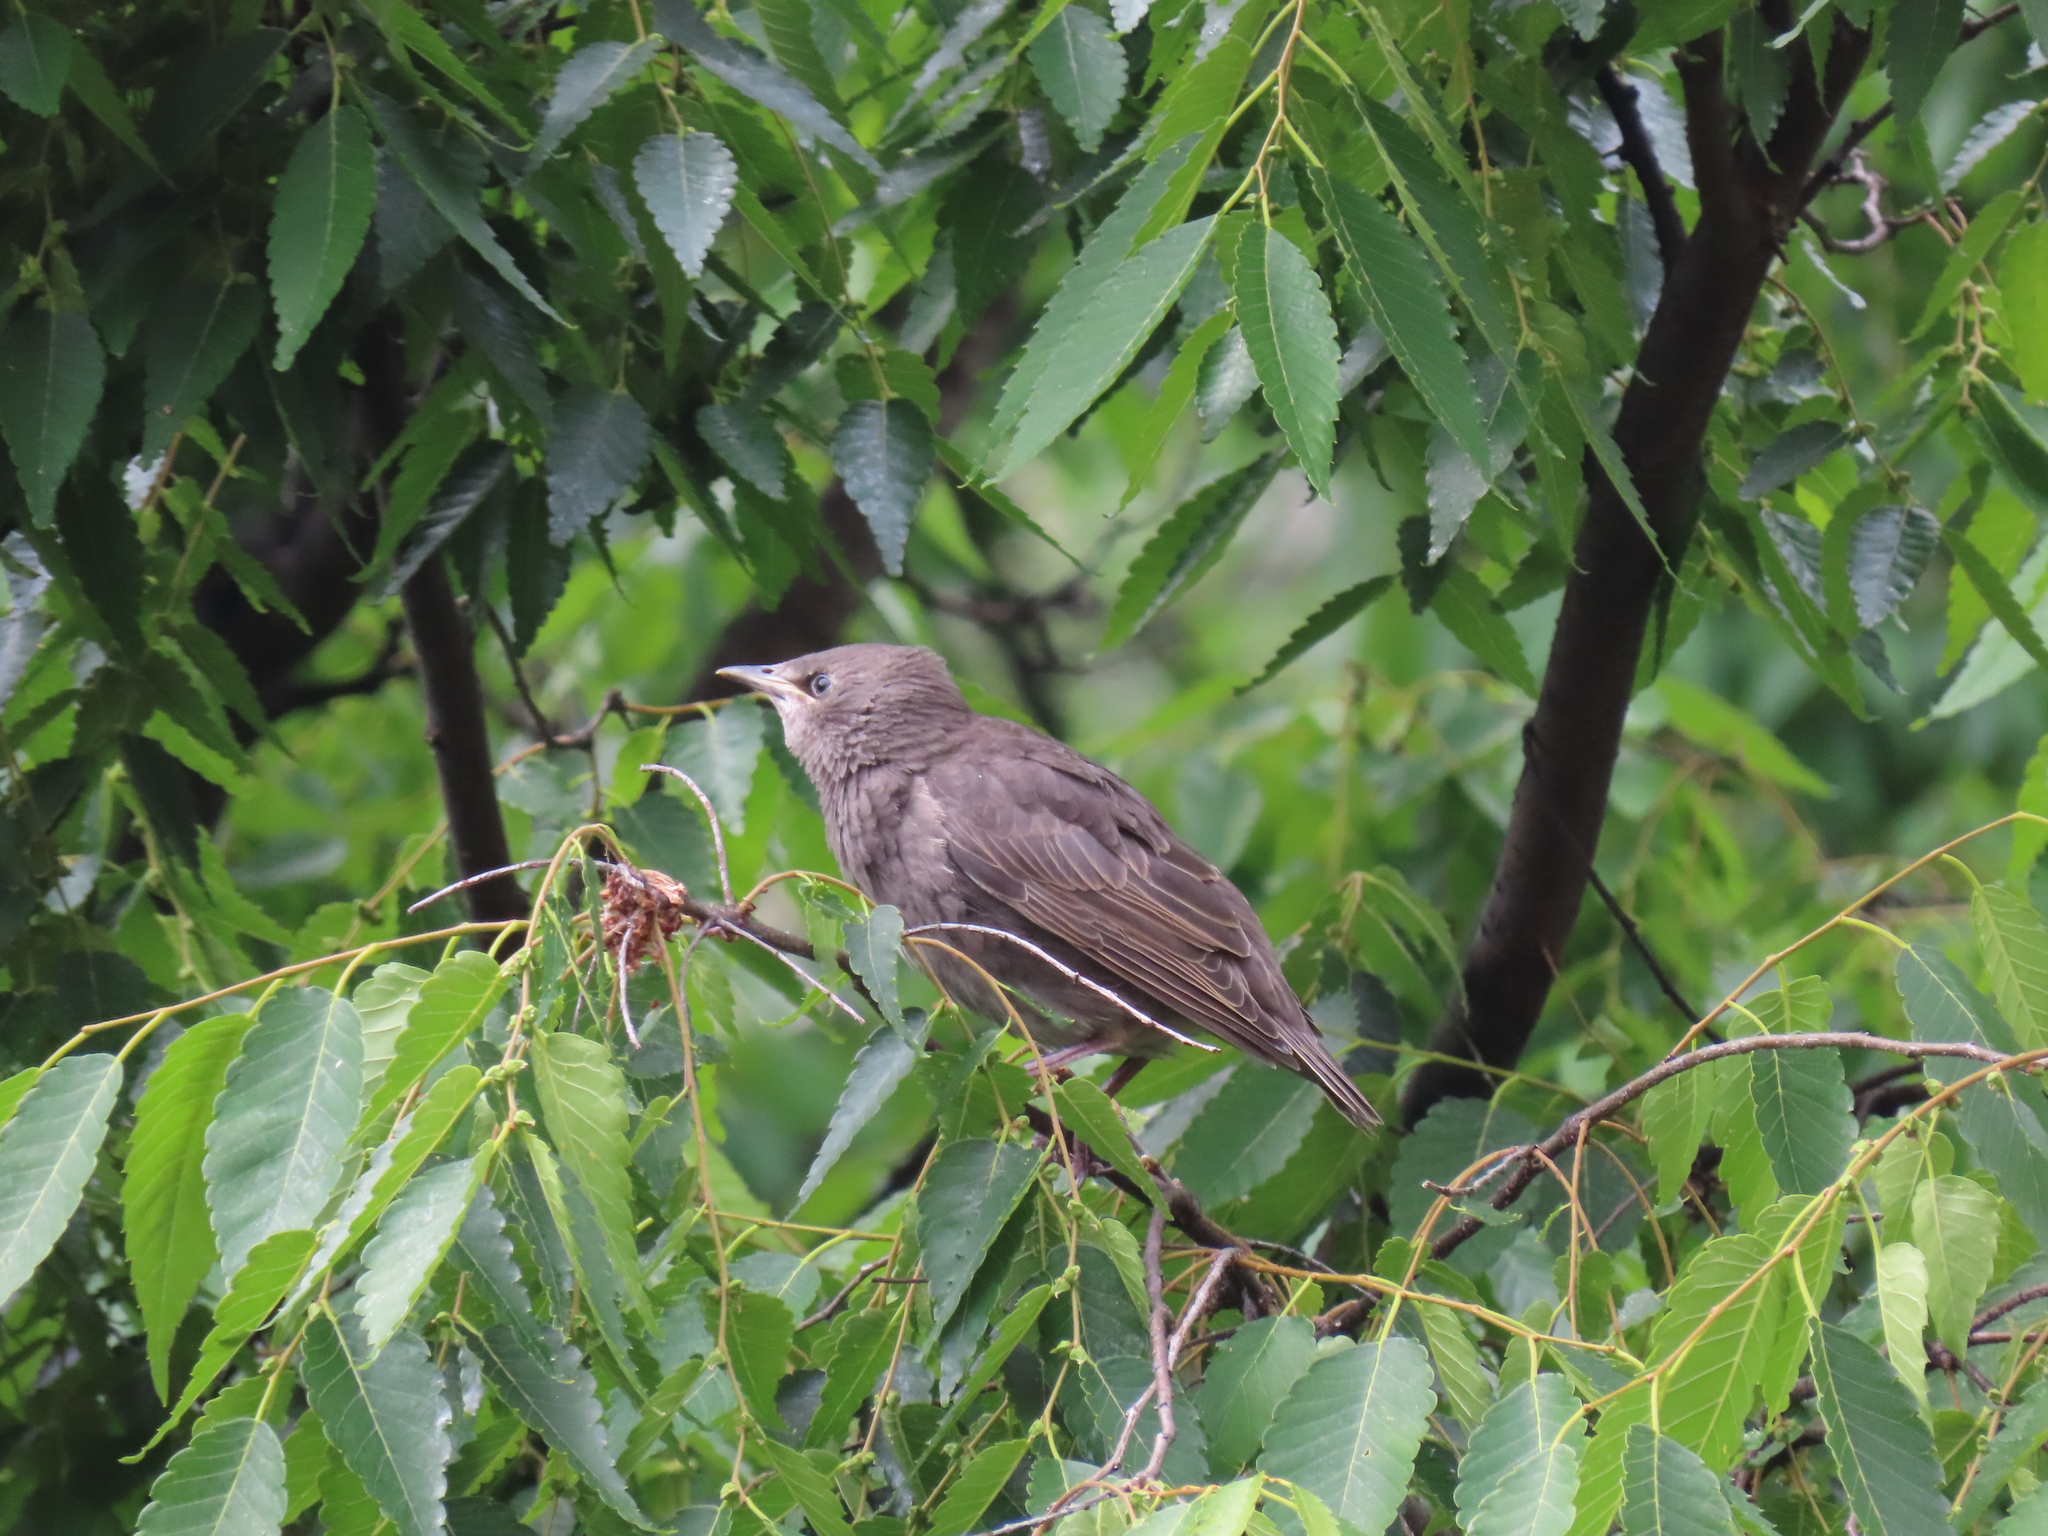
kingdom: Animalia
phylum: Chordata
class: Aves
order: Passeriformes
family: Sturnidae
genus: Sturnus
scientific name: Sturnus vulgaris
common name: Common starling
